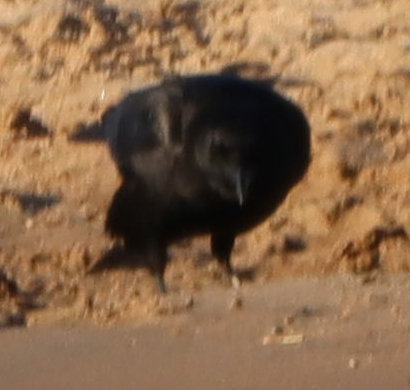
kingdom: Animalia
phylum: Chordata
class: Aves
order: Passeriformes
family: Corvidae
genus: Corvus
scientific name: Corvus brachyrhynchos
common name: American crow
